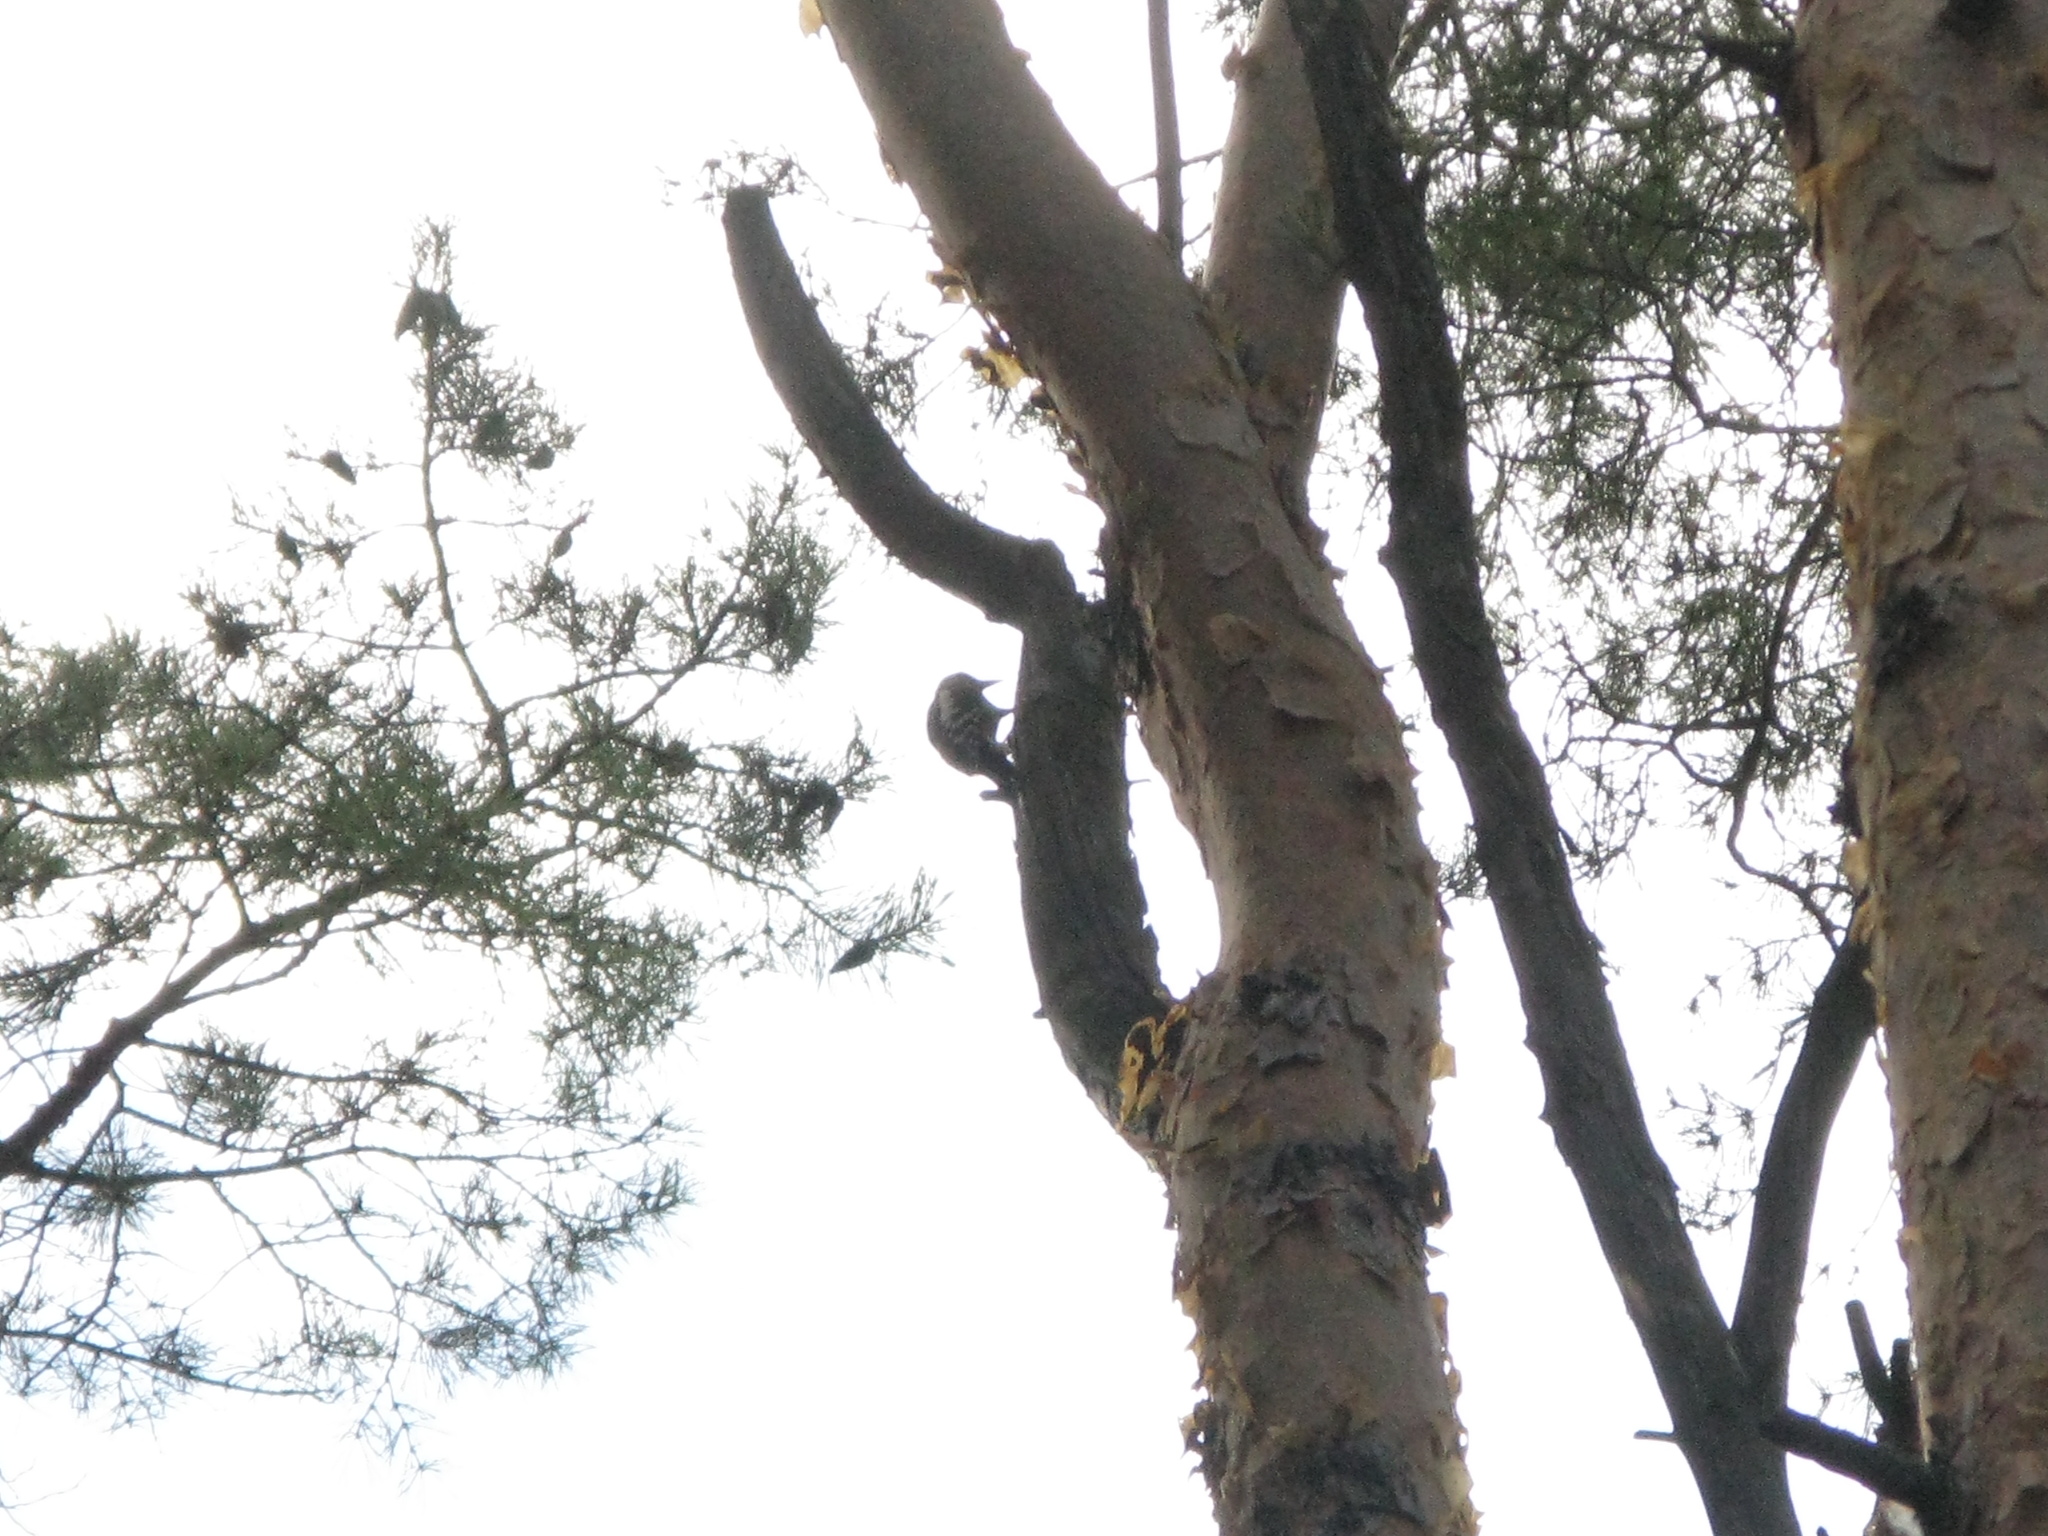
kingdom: Animalia
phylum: Chordata
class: Aves
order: Piciformes
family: Picidae
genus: Dendrocopos
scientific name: Dendrocopos syriacus
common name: Syrian woodpecker
